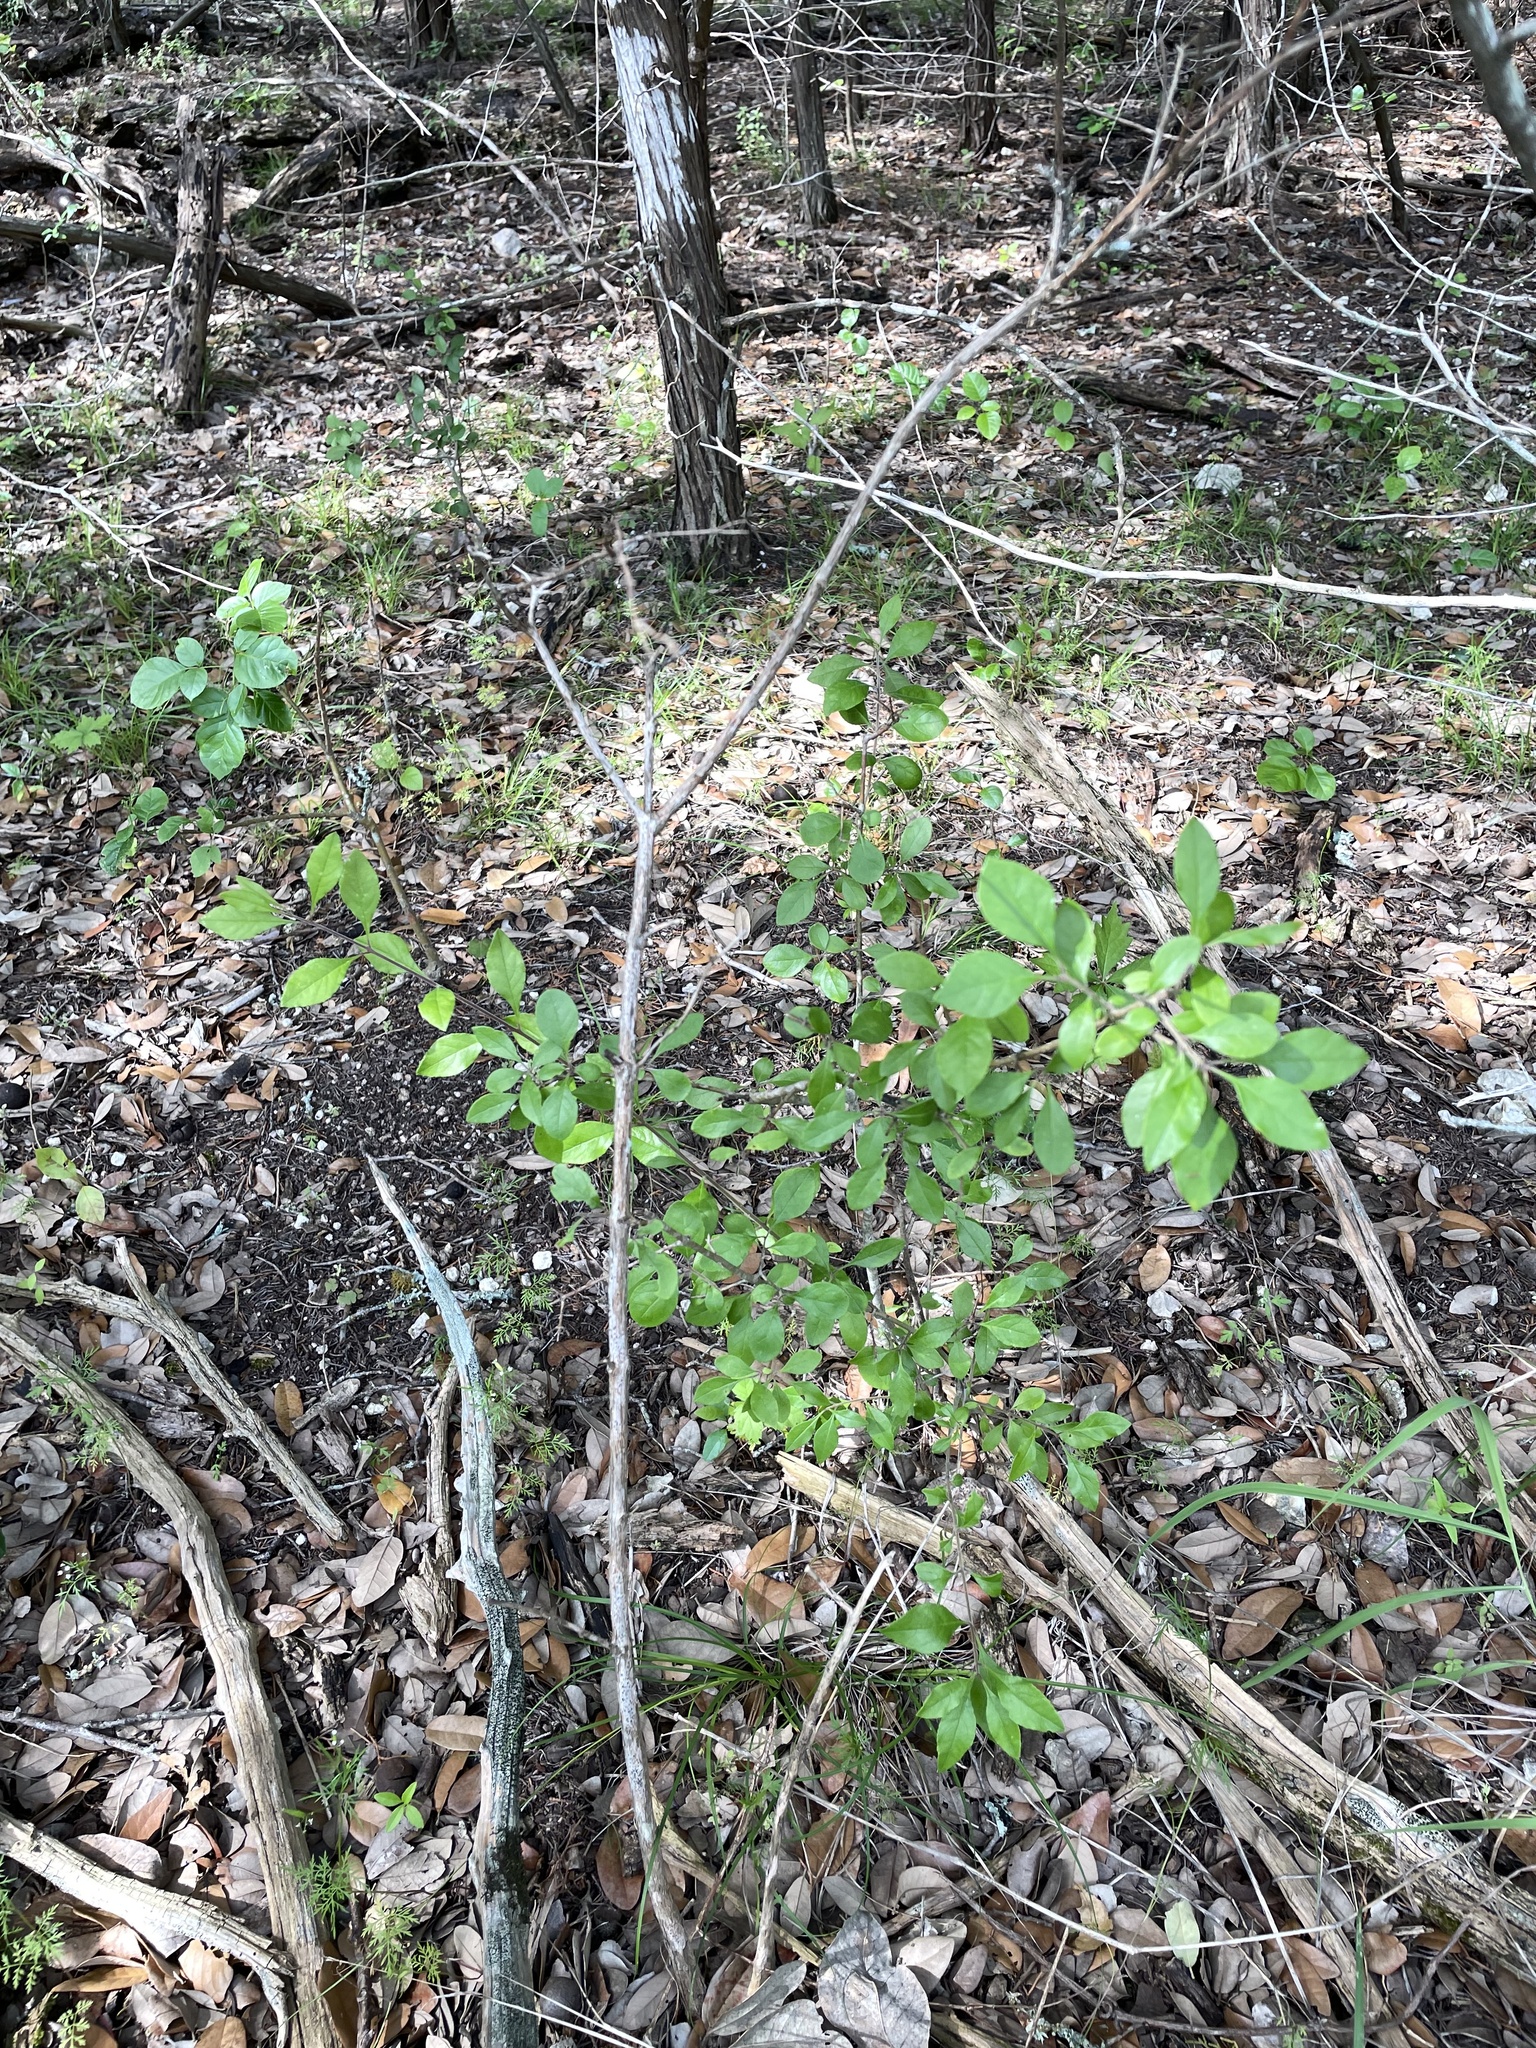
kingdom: Plantae
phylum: Tracheophyta
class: Magnoliopsida
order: Lamiales
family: Oleaceae
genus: Forestiera
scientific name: Forestiera pubescens
